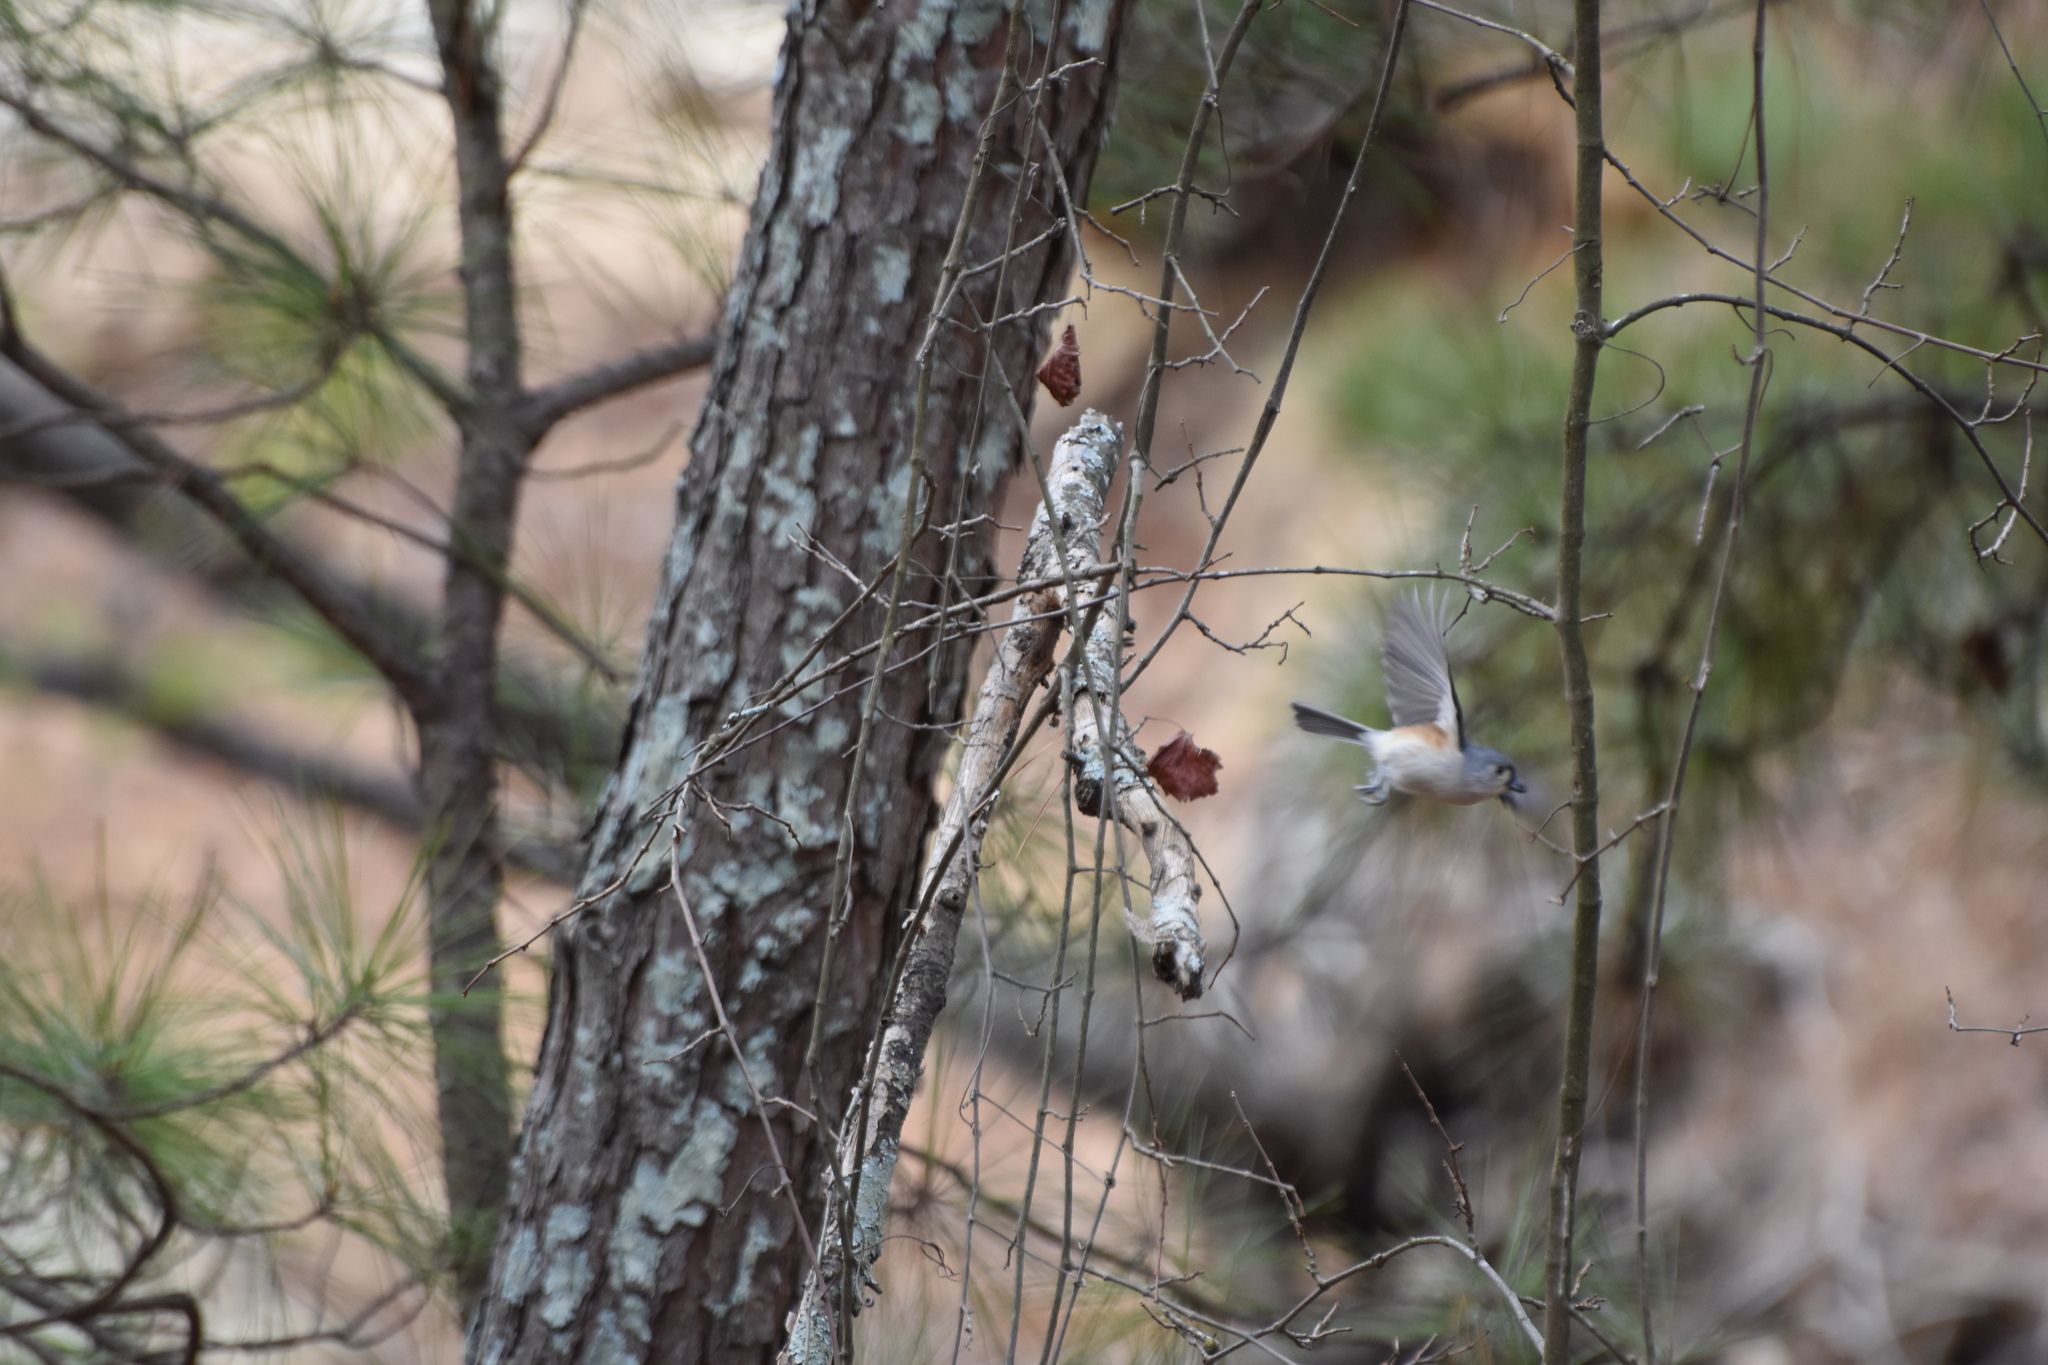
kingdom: Animalia
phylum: Chordata
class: Aves
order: Passeriformes
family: Paridae
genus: Baeolophus
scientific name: Baeolophus bicolor
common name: Tufted titmouse
